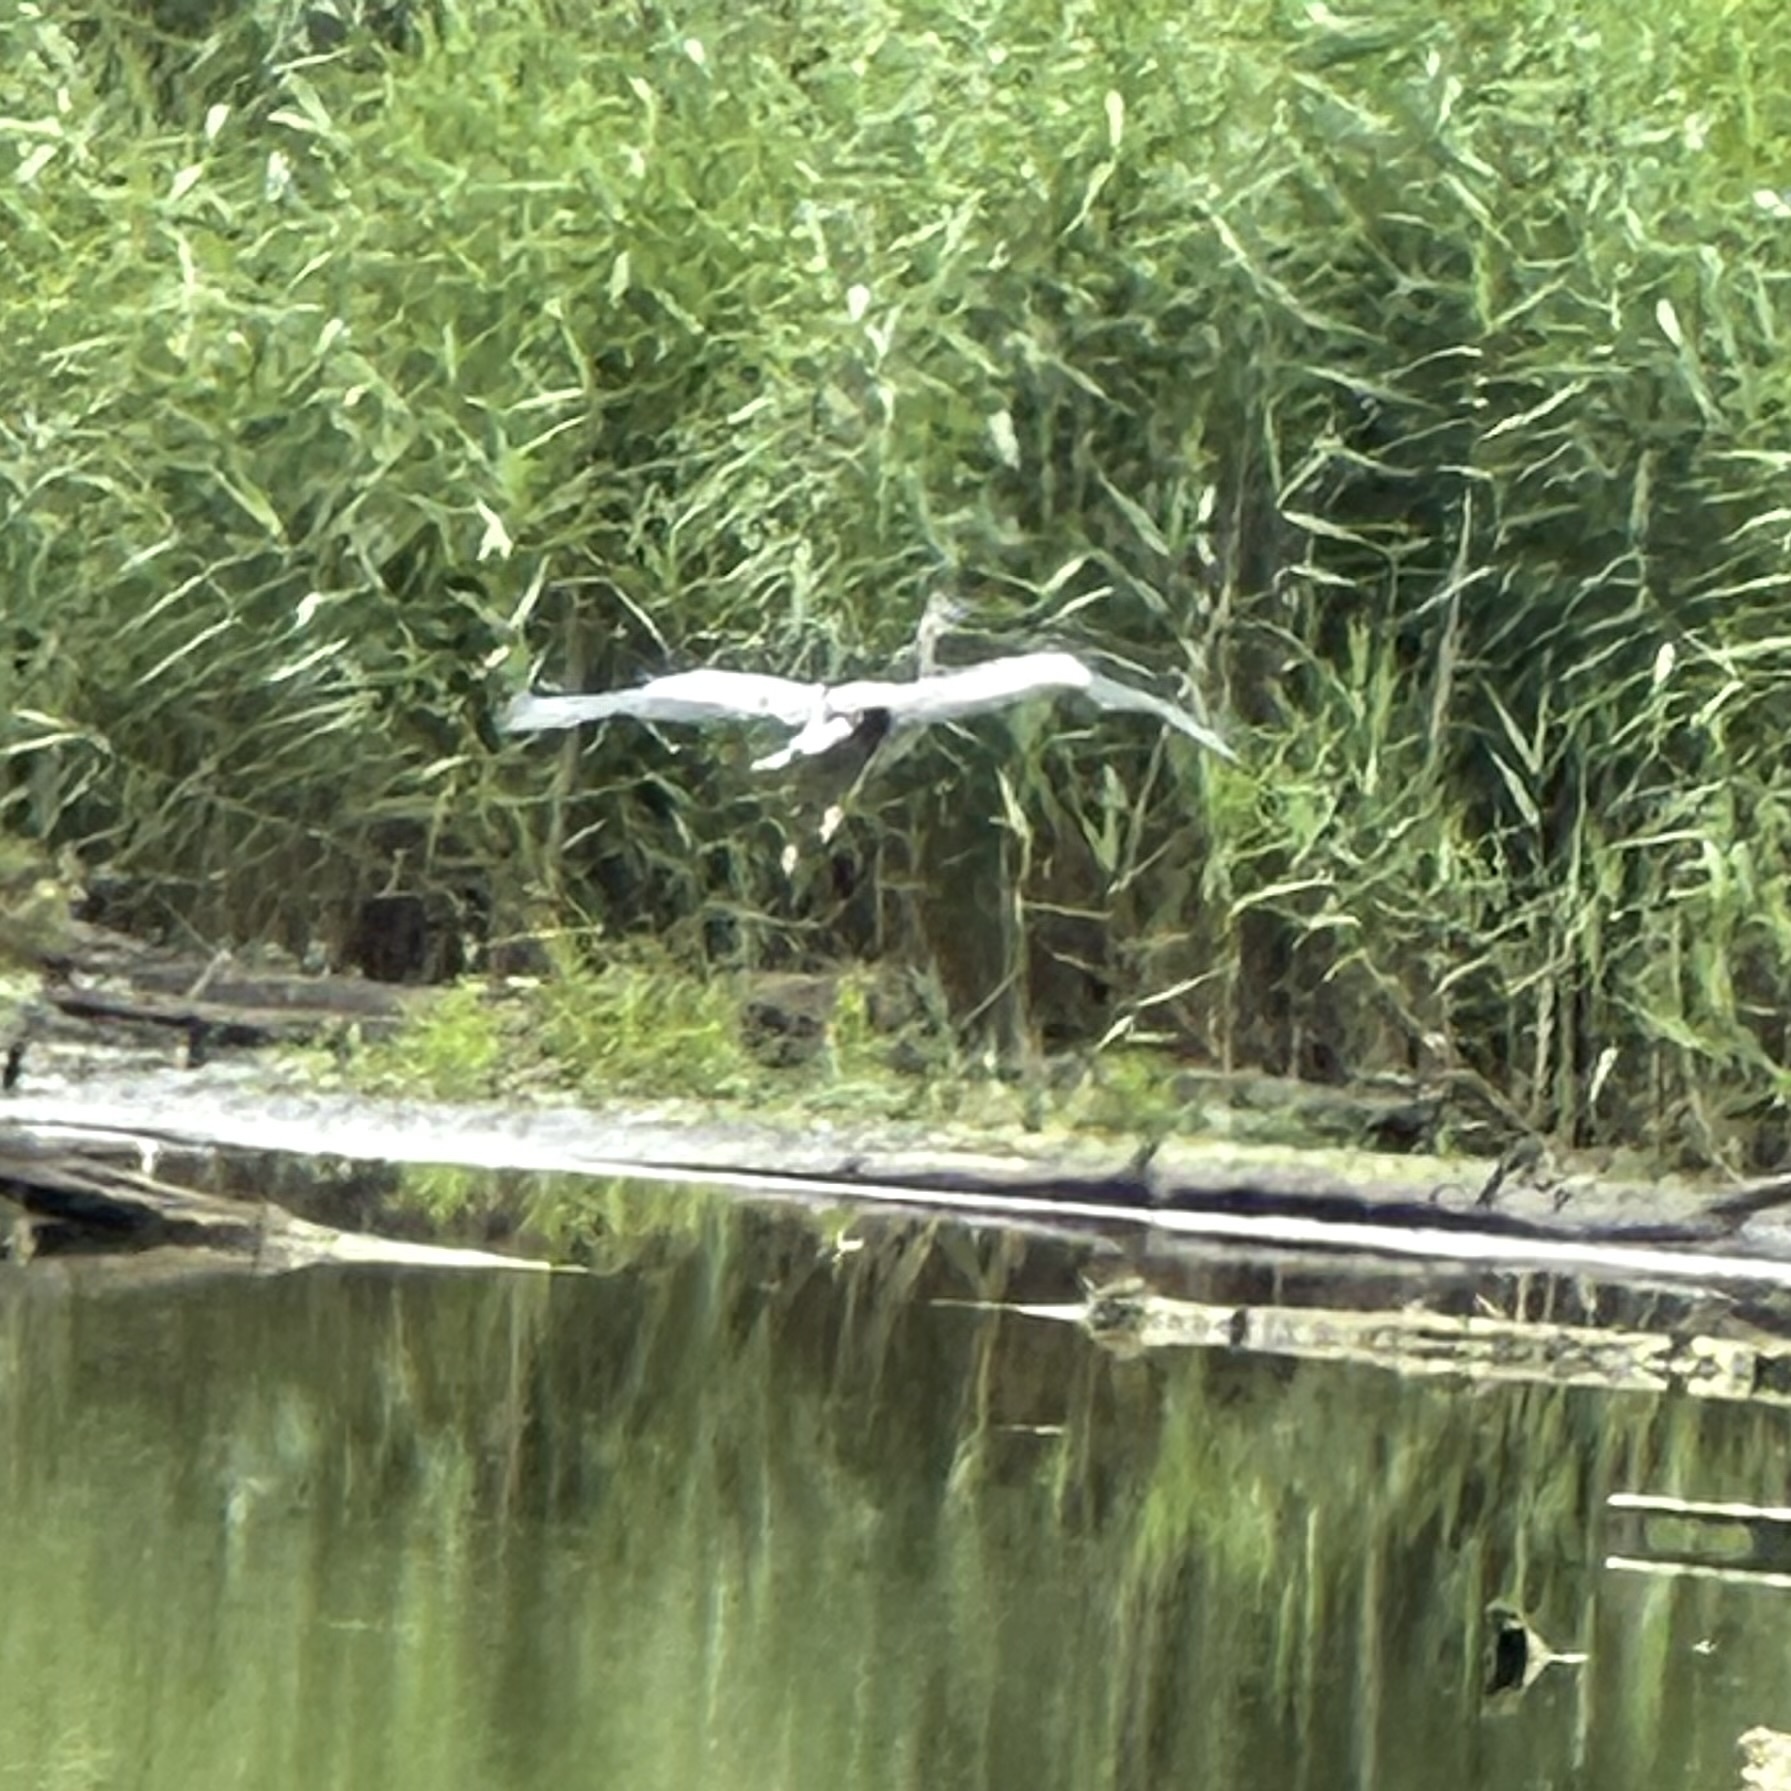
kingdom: Animalia
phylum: Chordata
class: Aves
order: Pelecaniformes
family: Ardeidae
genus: Ardea
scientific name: Ardea herodias
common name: Great blue heron
